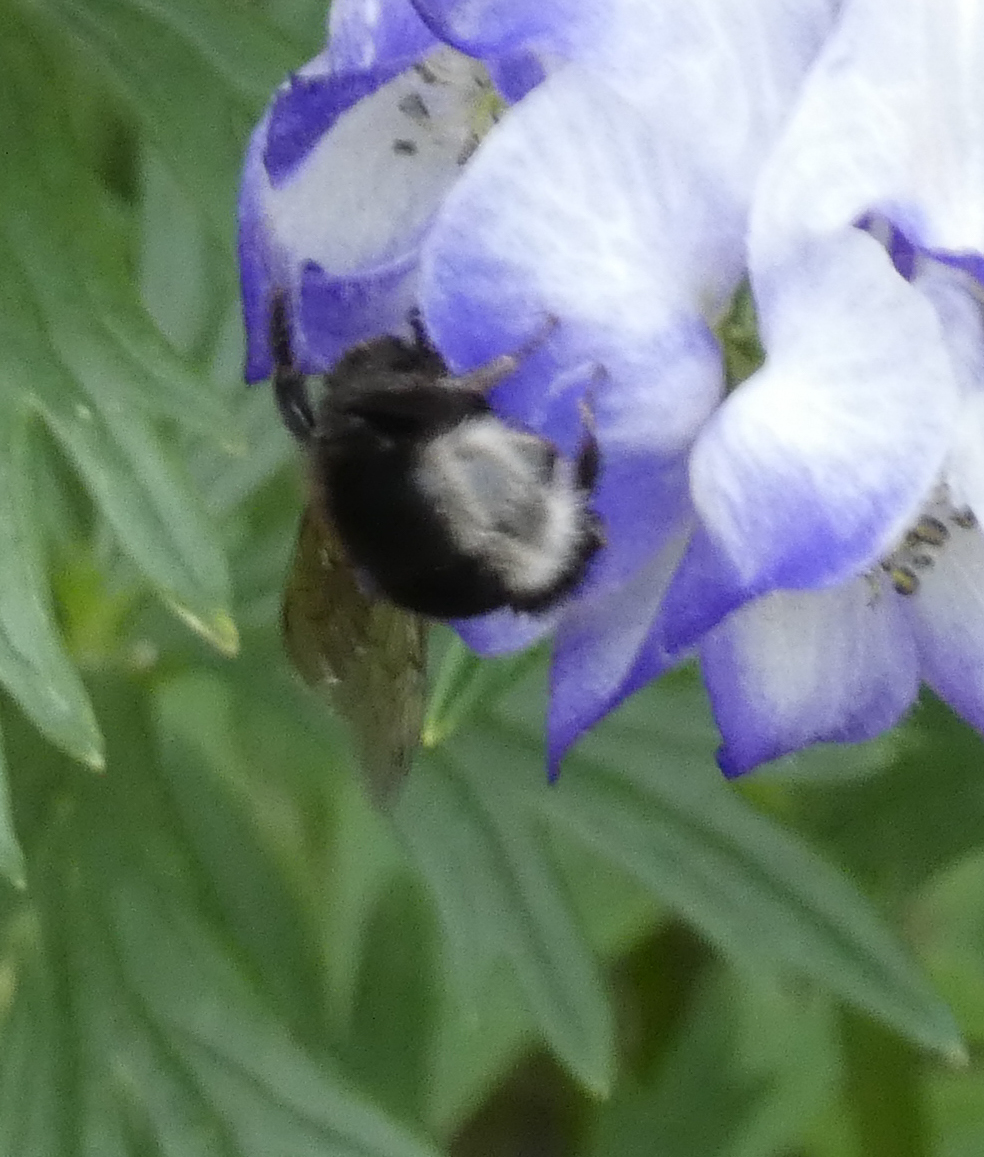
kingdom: Animalia
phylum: Arthropoda
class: Insecta
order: Hymenoptera
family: Apidae
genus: Bombus
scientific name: Bombus occidentalis
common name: Western bumble bee
